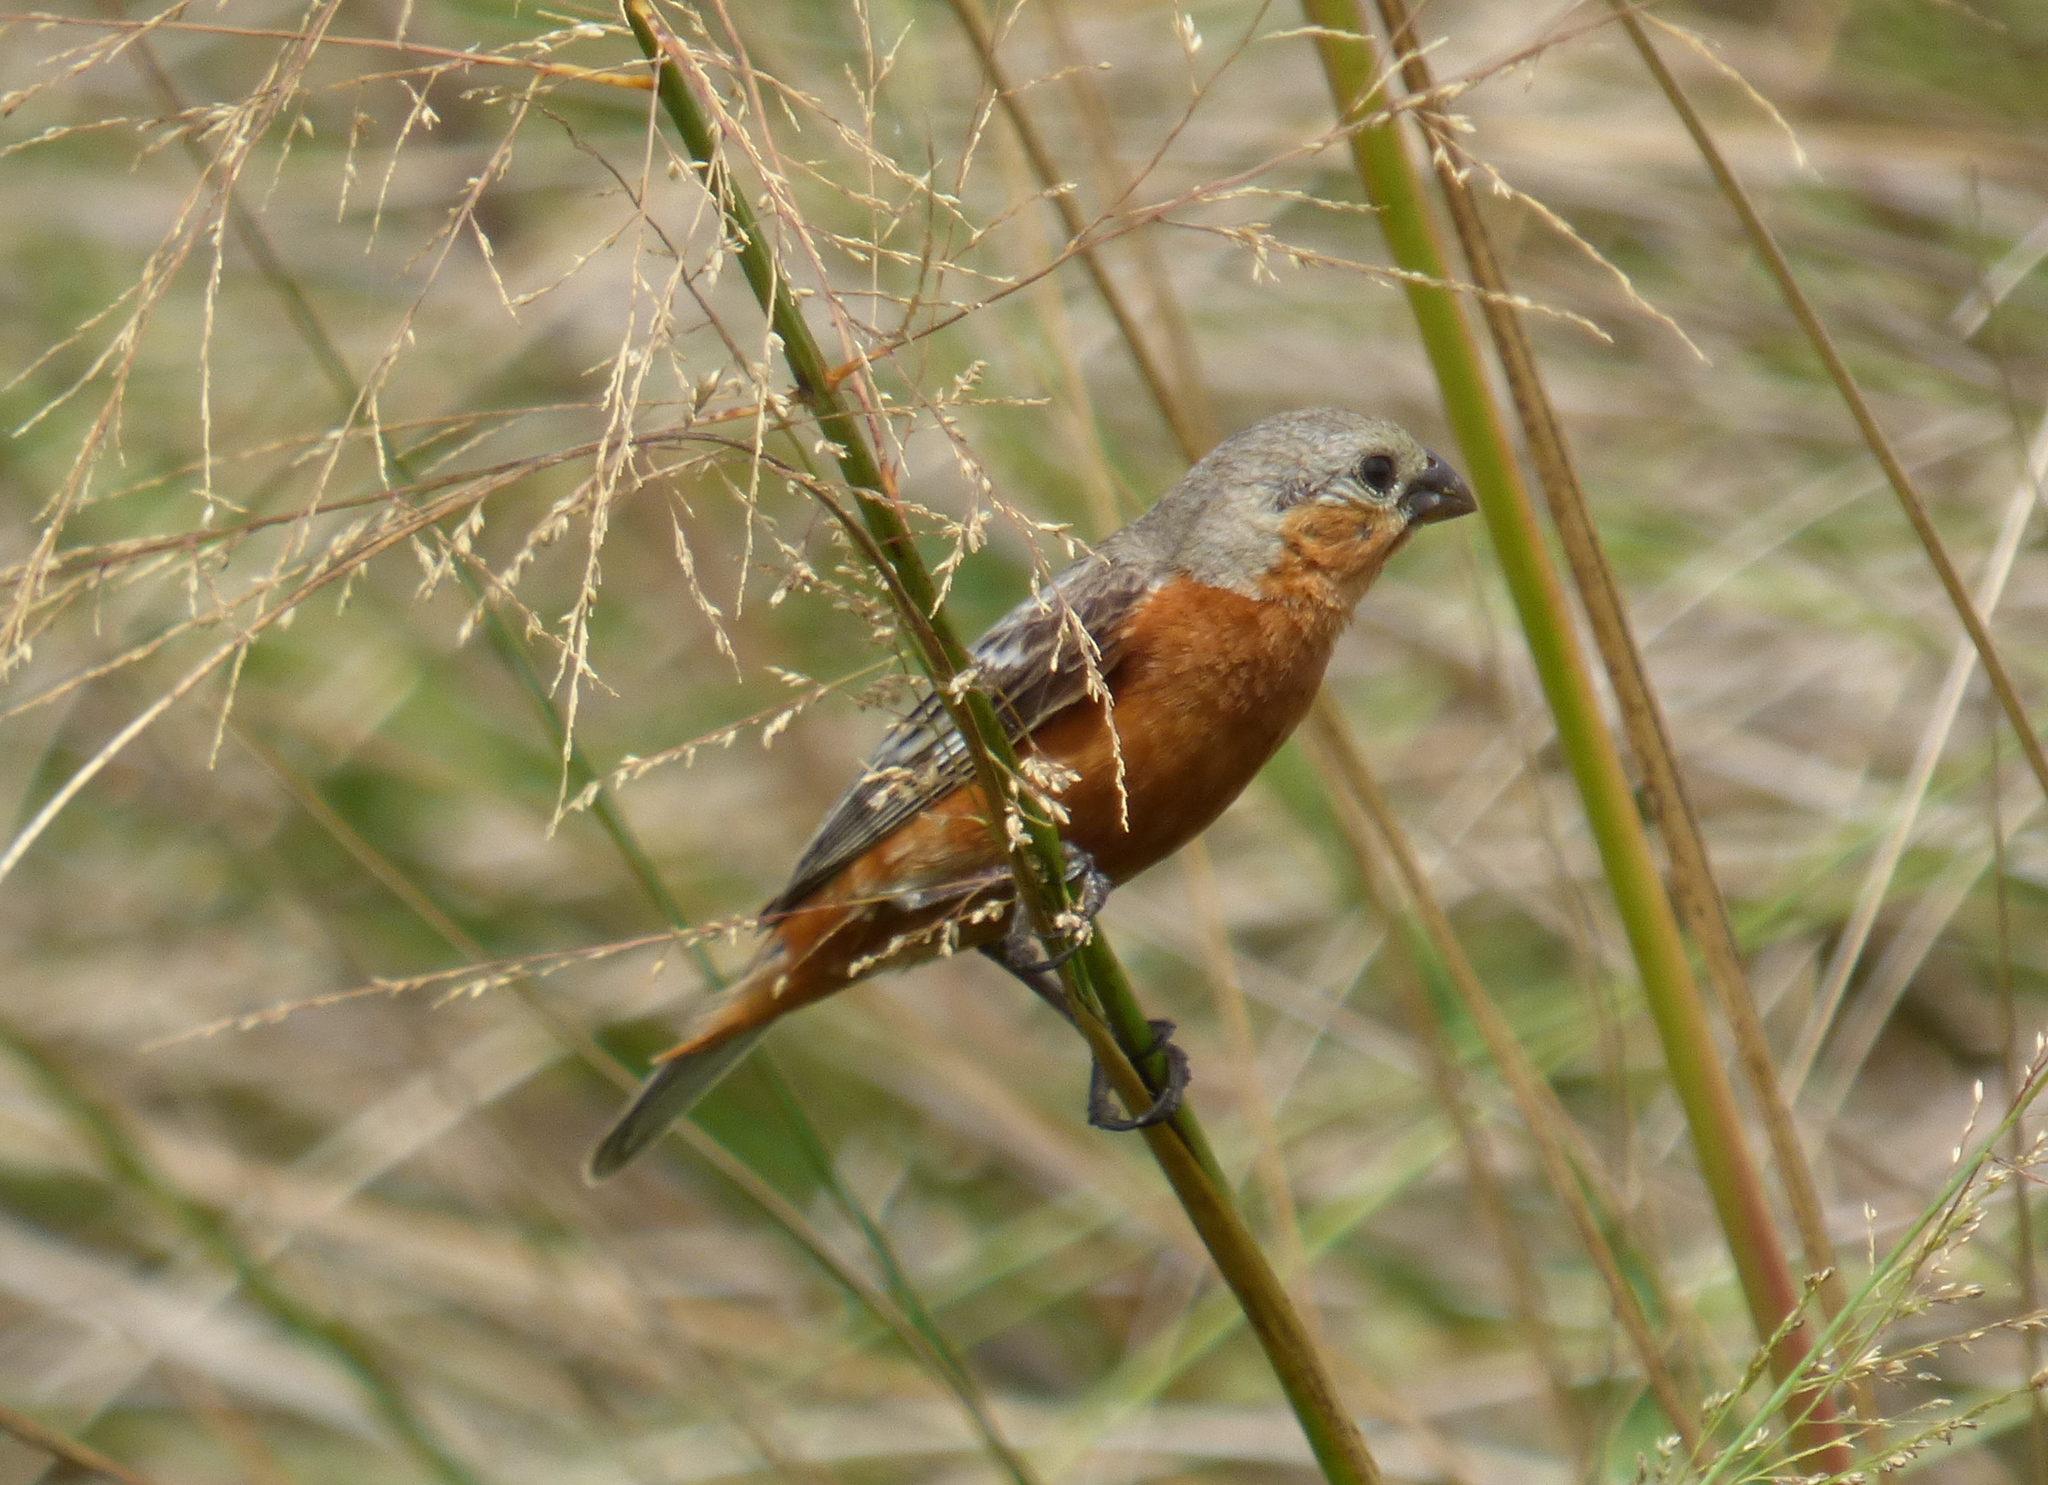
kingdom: Animalia
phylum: Chordata
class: Aves
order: Passeriformes
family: Thraupidae
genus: Sporophila
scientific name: Sporophila hypoxantha
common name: Tawny-bellied seedeater
